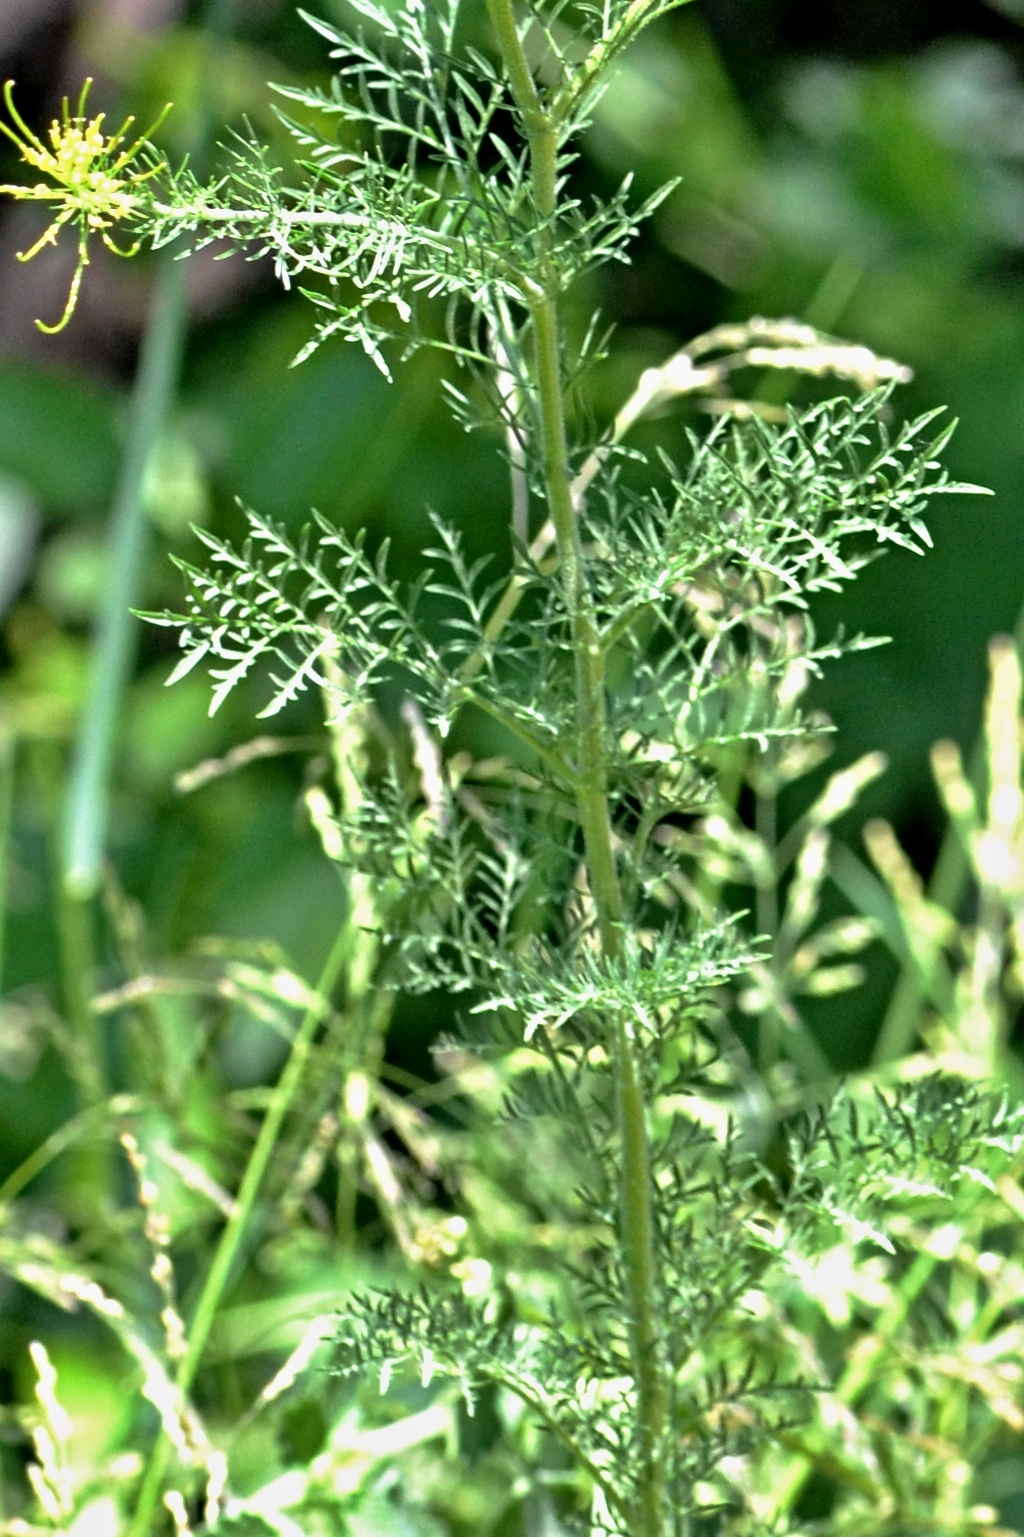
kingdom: Plantae
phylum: Tracheophyta
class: Magnoliopsida
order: Brassicales
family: Brassicaceae
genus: Descurainia
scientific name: Descurainia sophia
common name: Flixweed
